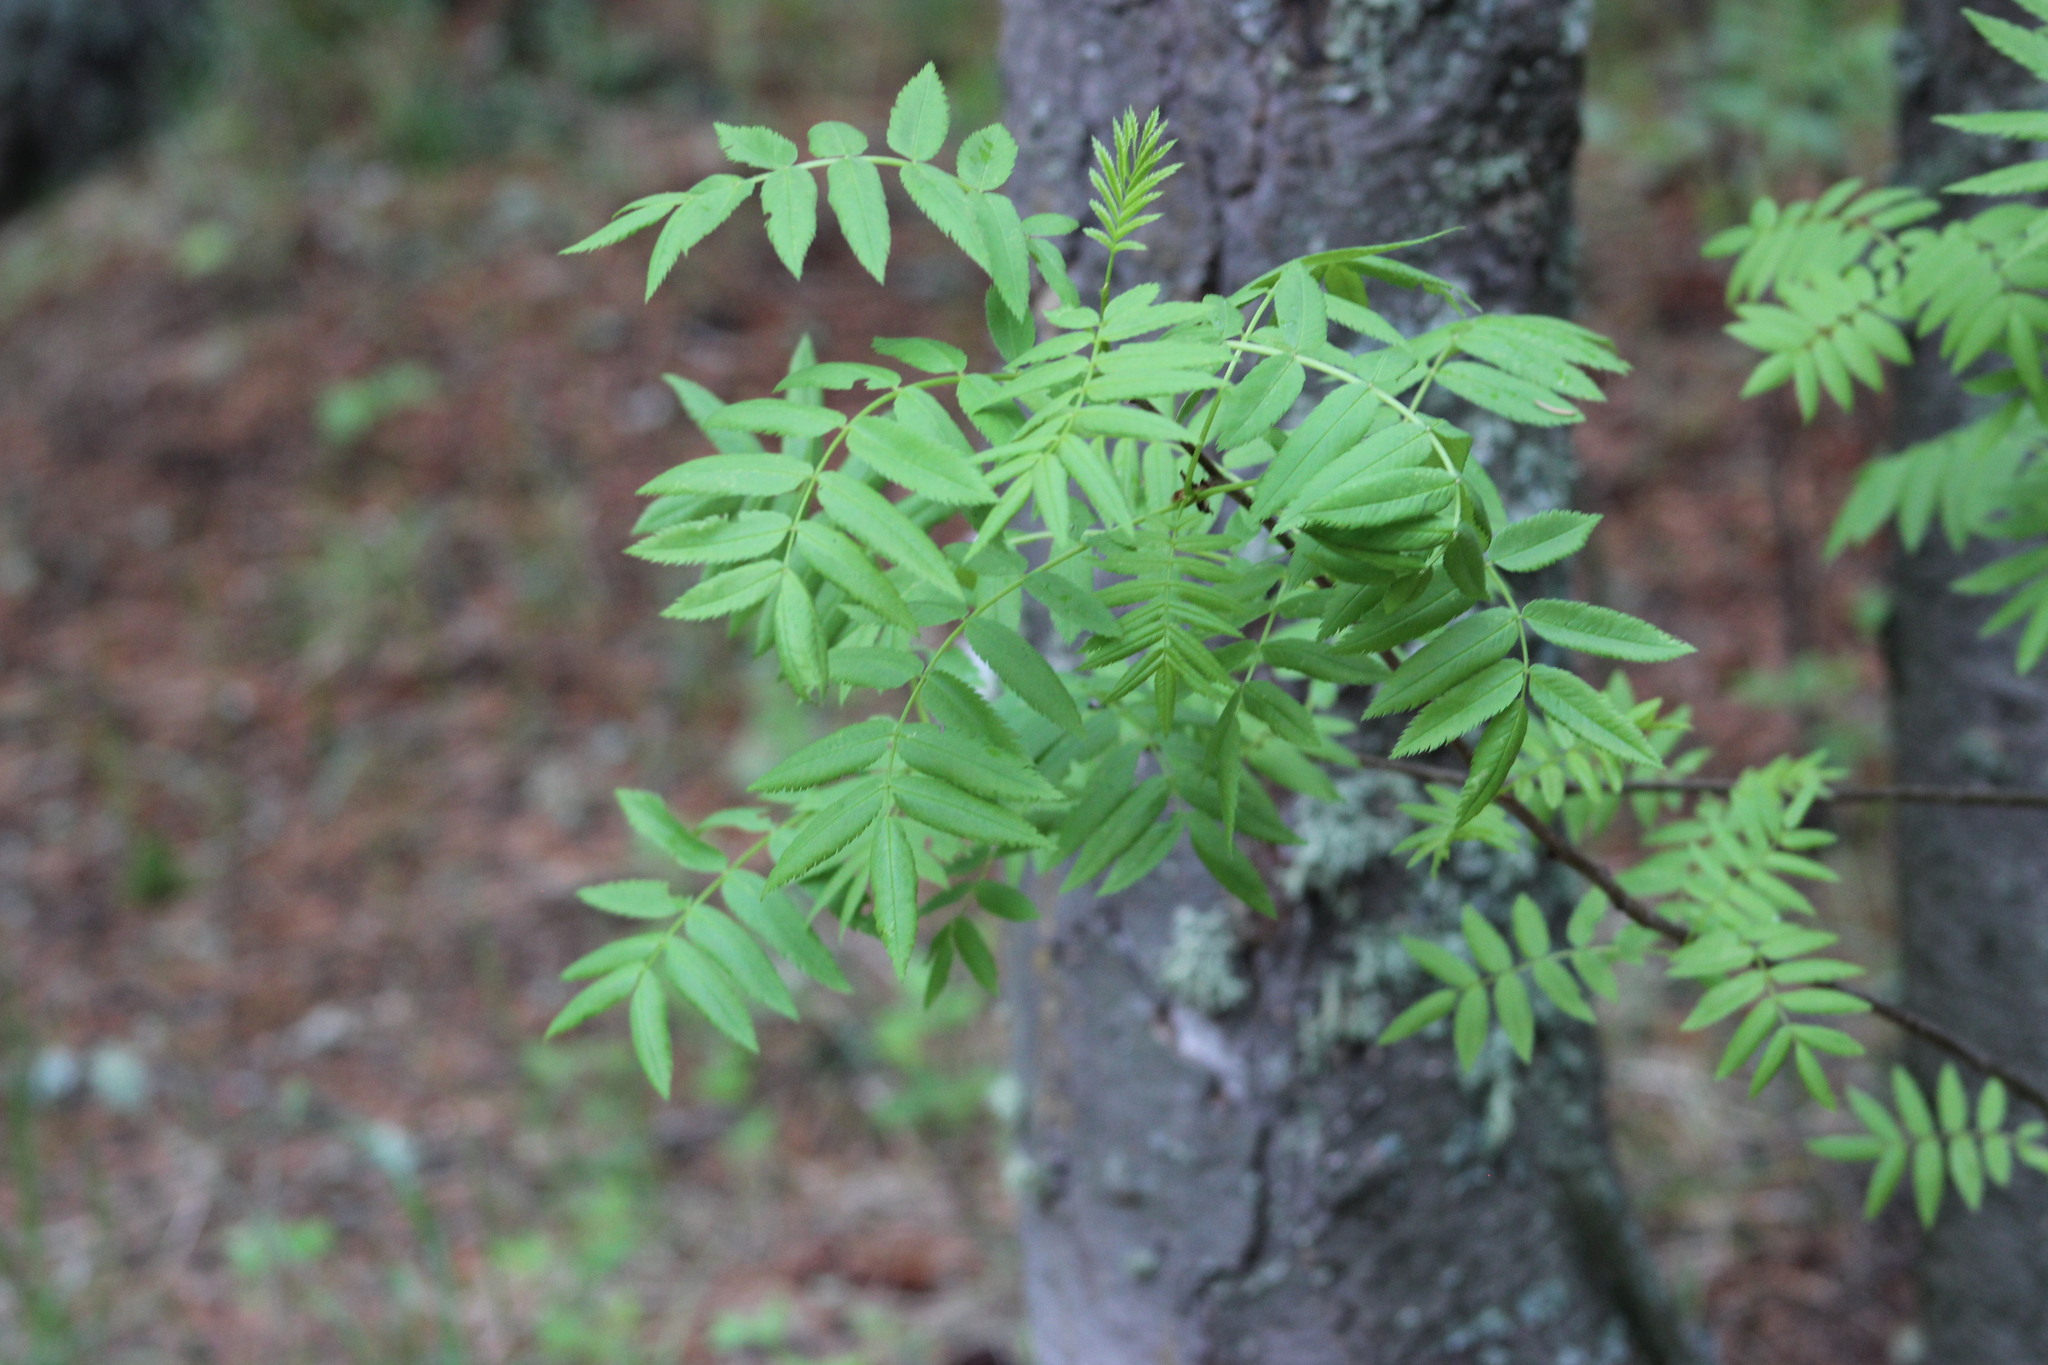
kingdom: Plantae
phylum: Tracheophyta
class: Magnoliopsida
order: Rosales
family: Rosaceae
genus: Sorbus
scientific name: Sorbus aucuparia
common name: Rowan
